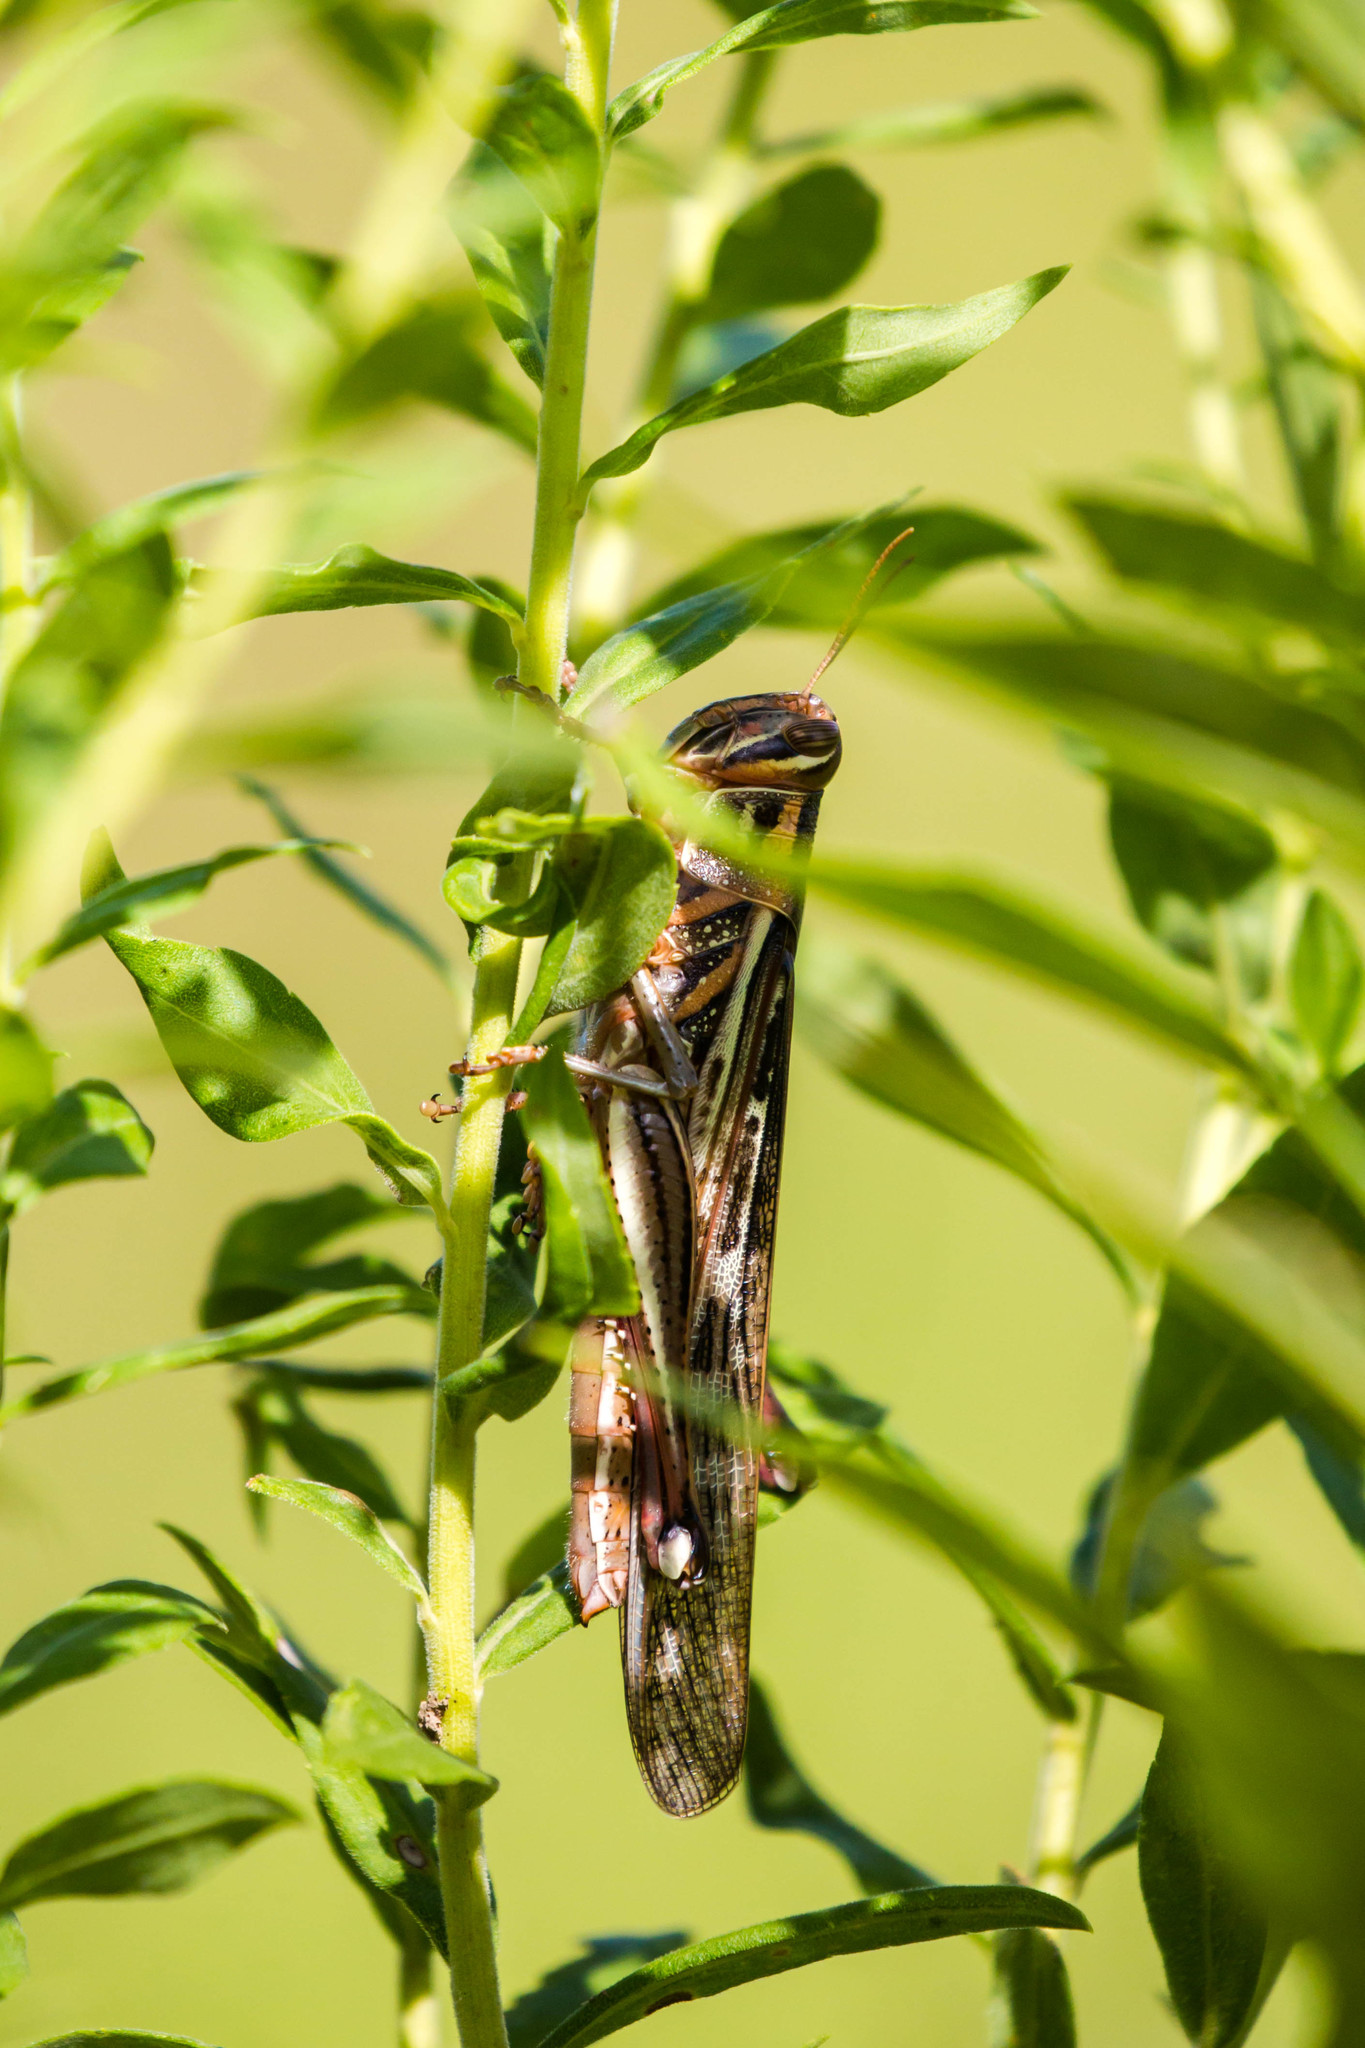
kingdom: Animalia
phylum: Arthropoda
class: Insecta
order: Orthoptera
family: Acrididae
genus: Schistocerca
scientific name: Schistocerca americana
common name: American bird locust
